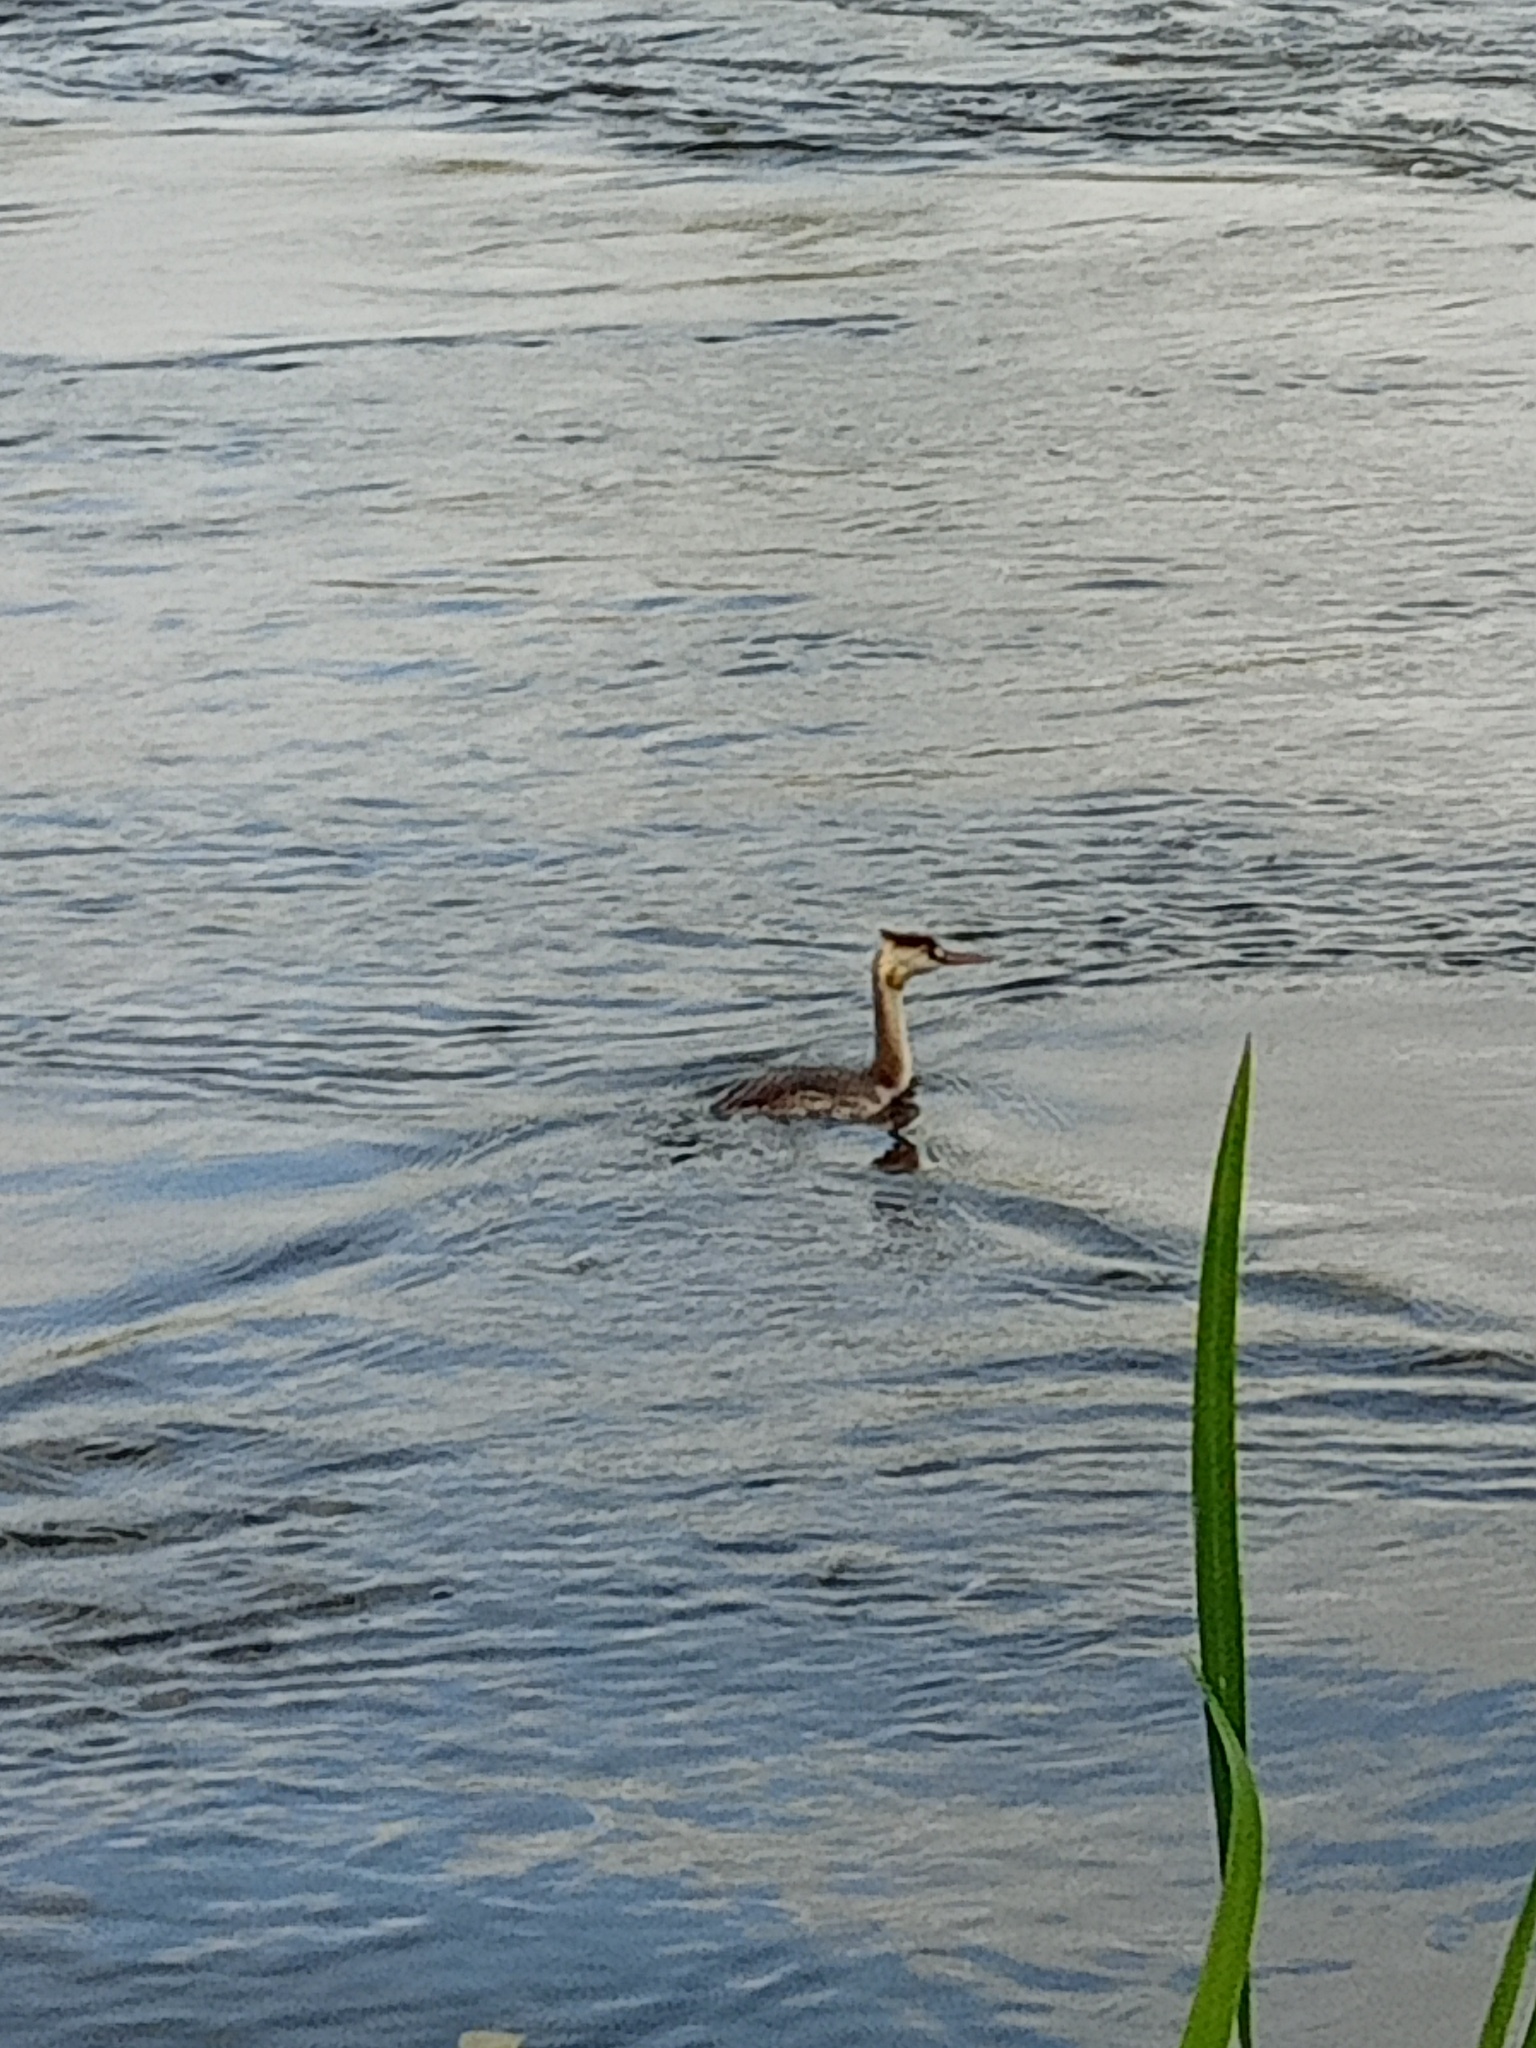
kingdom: Animalia
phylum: Chordata
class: Aves
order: Podicipediformes
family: Podicipedidae
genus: Podiceps
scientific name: Podiceps cristatus
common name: Great crested grebe
